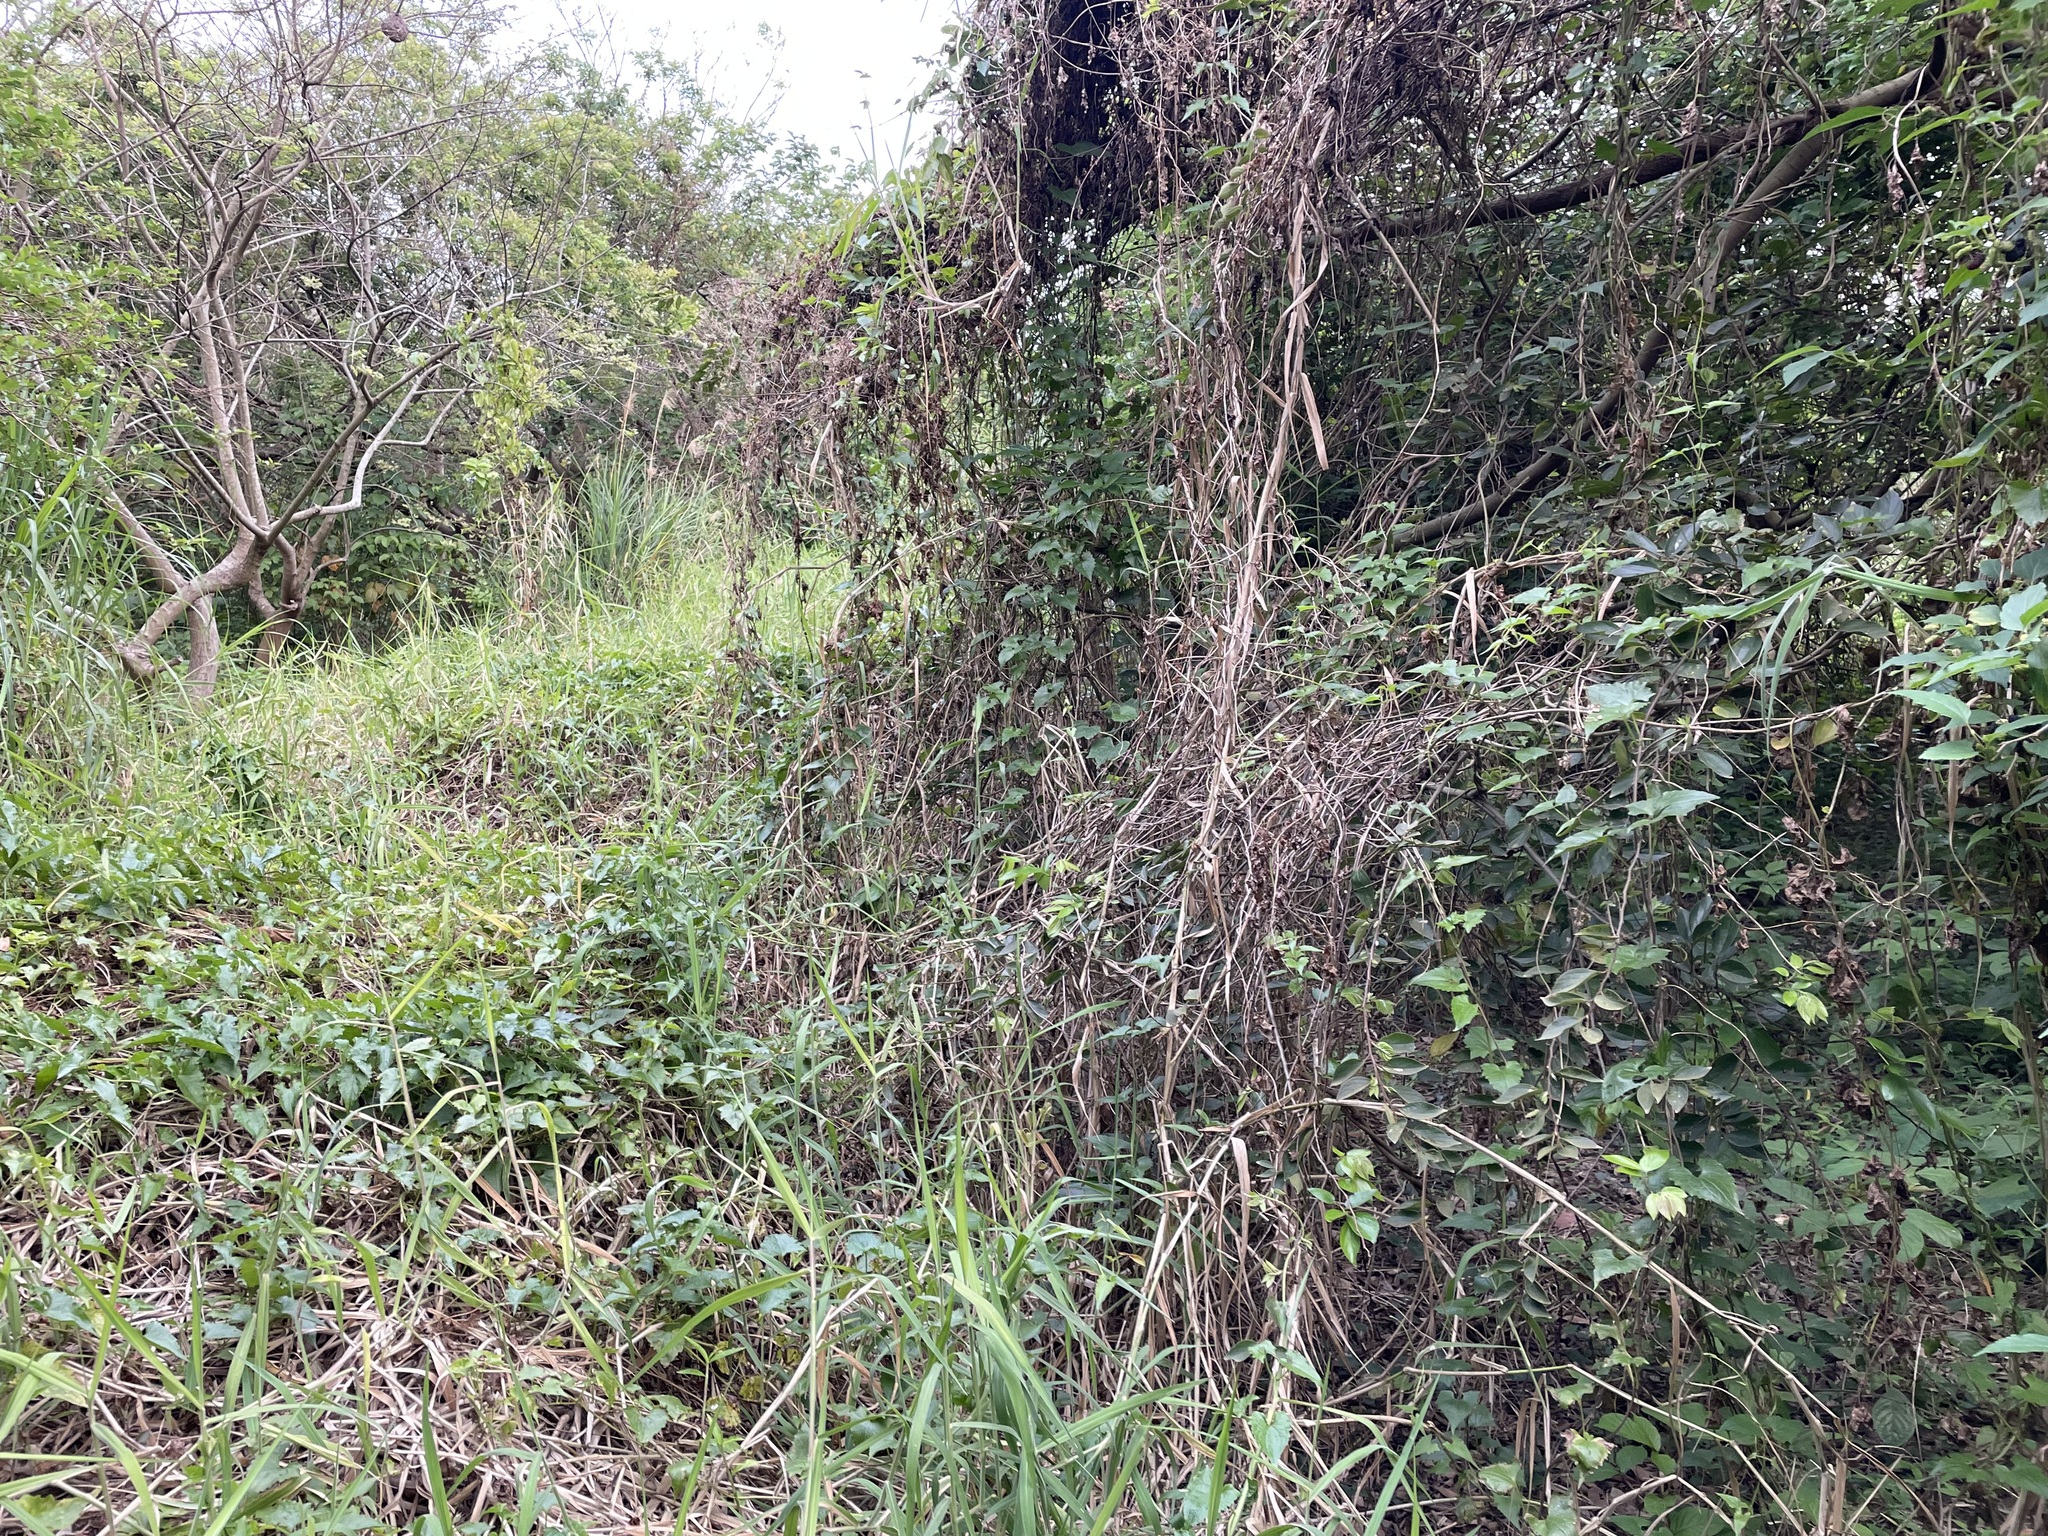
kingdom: Plantae
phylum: Tracheophyta
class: Magnoliopsida
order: Asterales
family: Asteraceae
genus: Mikania
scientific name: Mikania micrantha
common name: Mile-a-minute
